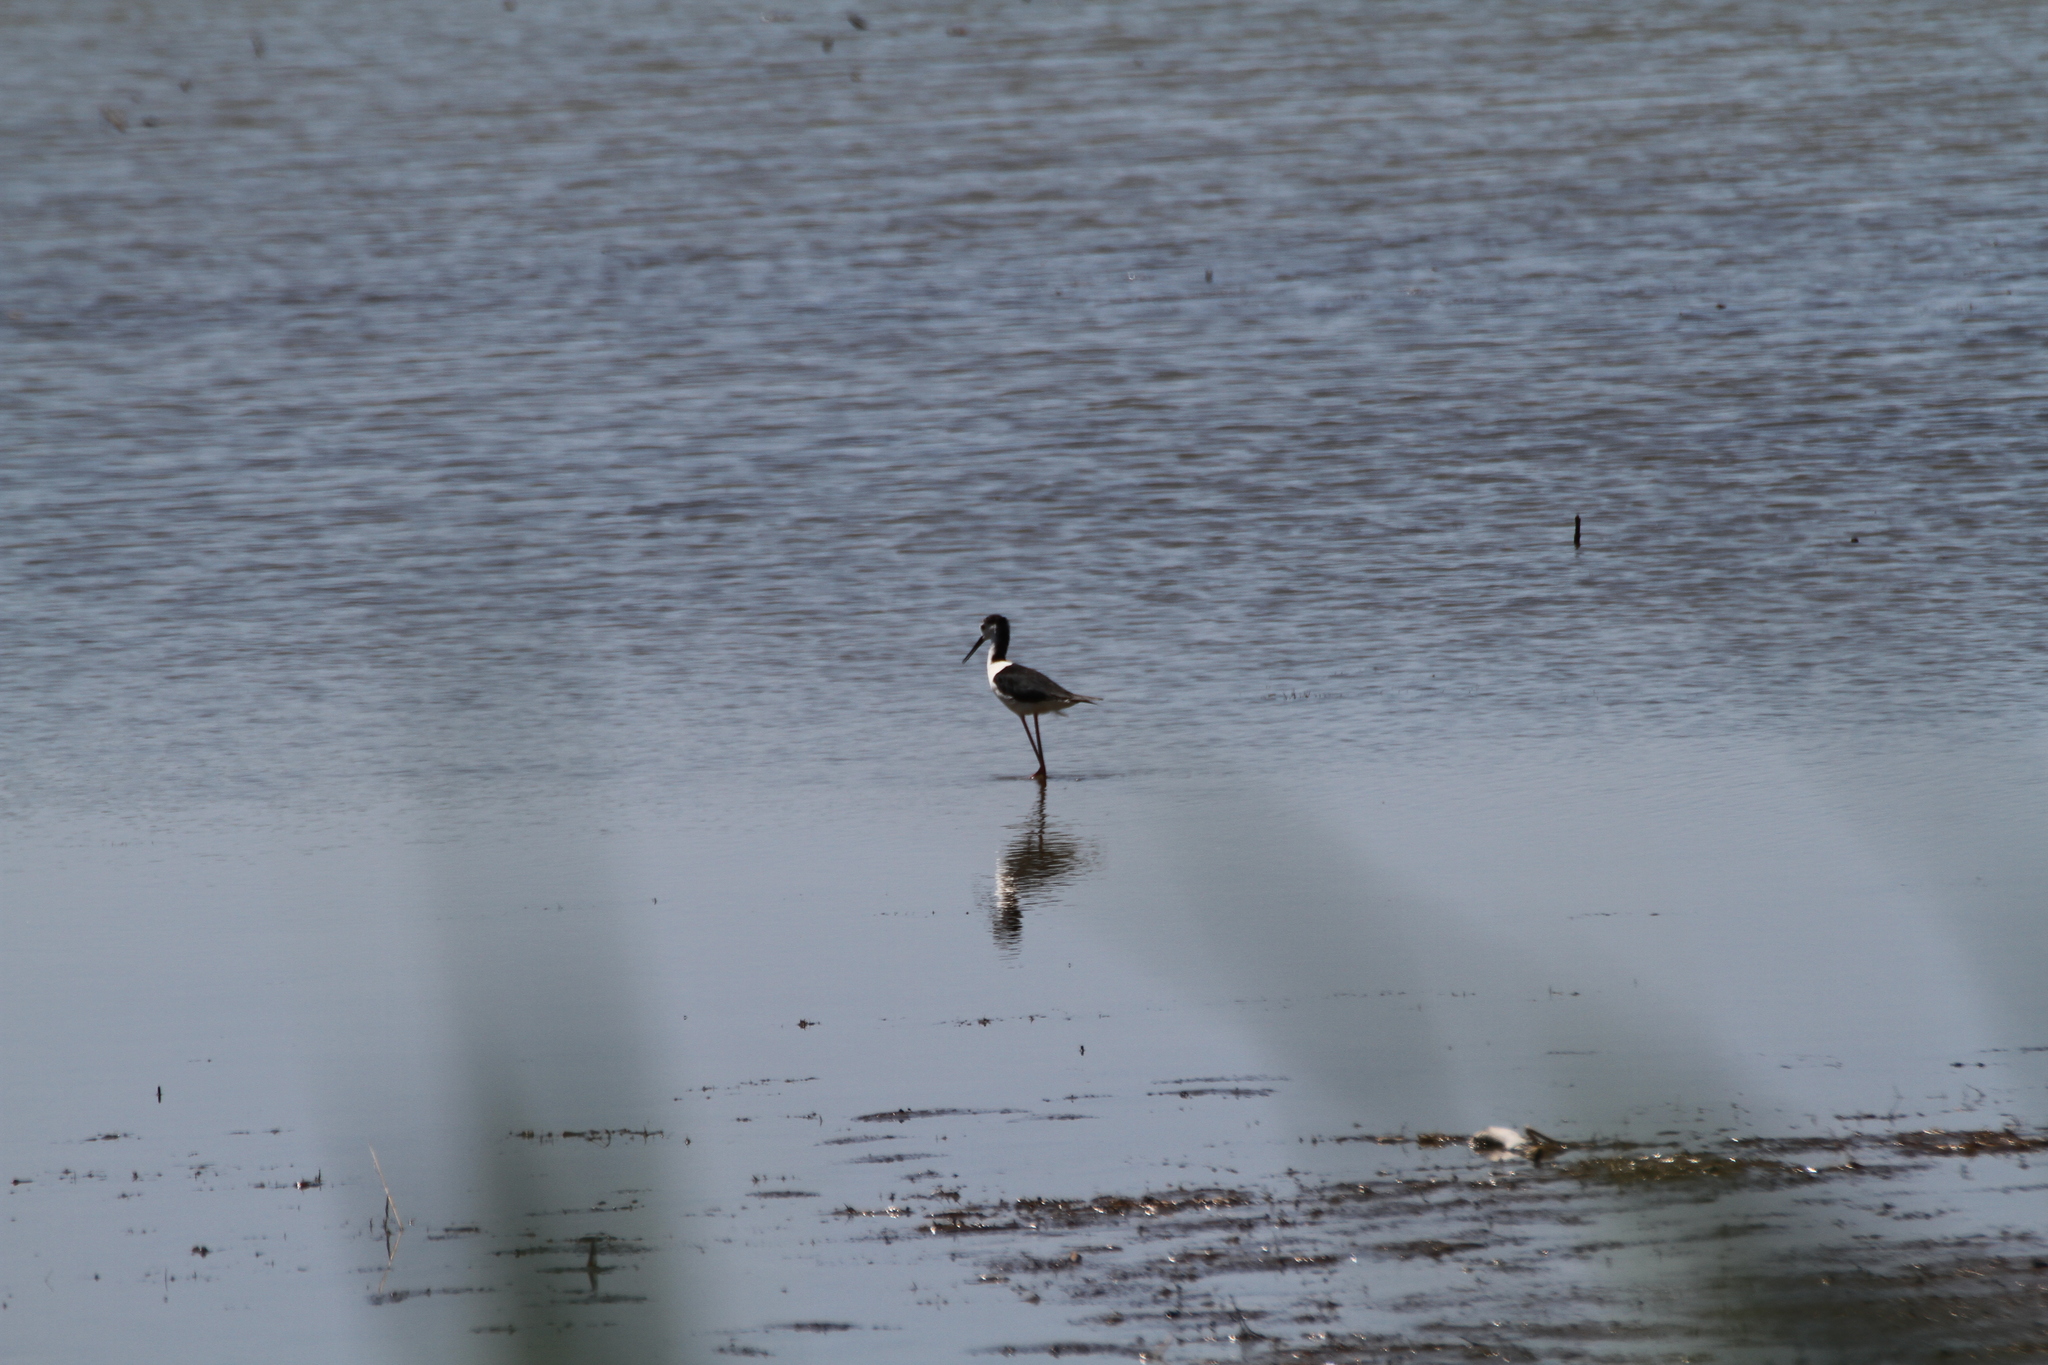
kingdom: Animalia
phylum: Chordata
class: Aves
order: Charadriiformes
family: Recurvirostridae
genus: Himantopus
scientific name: Himantopus himantopus
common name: Black-winged stilt
